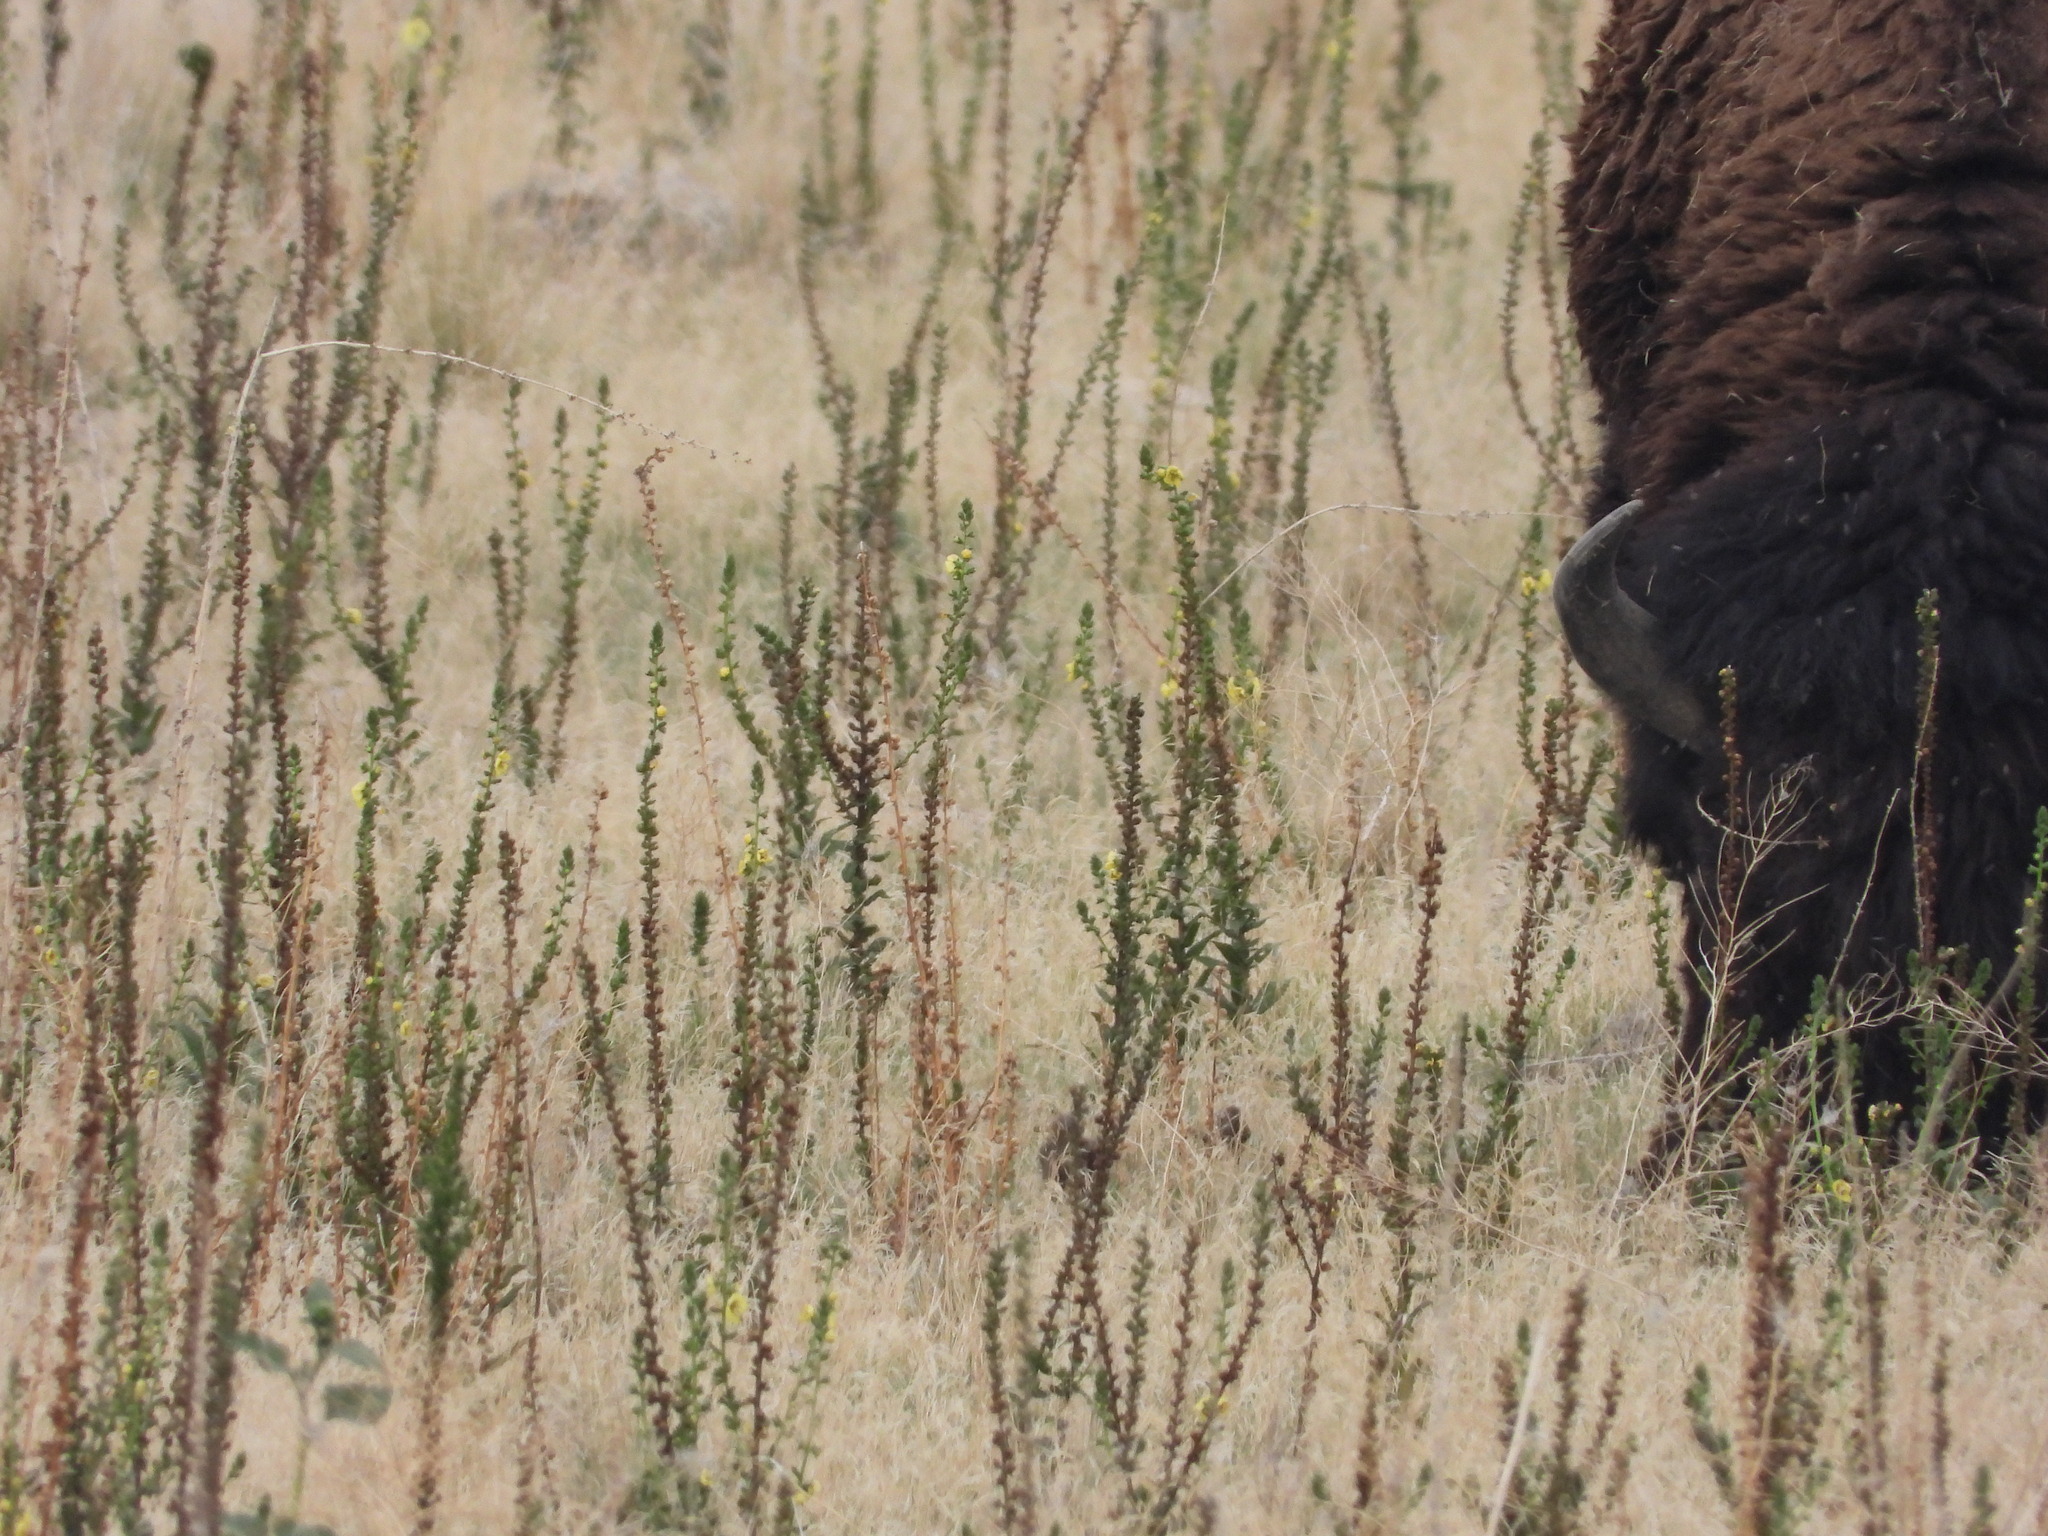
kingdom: Plantae
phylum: Tracheophyta
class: Magnoliopsida
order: Lamiales
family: Scrophulariaceae
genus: Verbascum
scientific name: Verbascum virgatum
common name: Twiggy mullein
